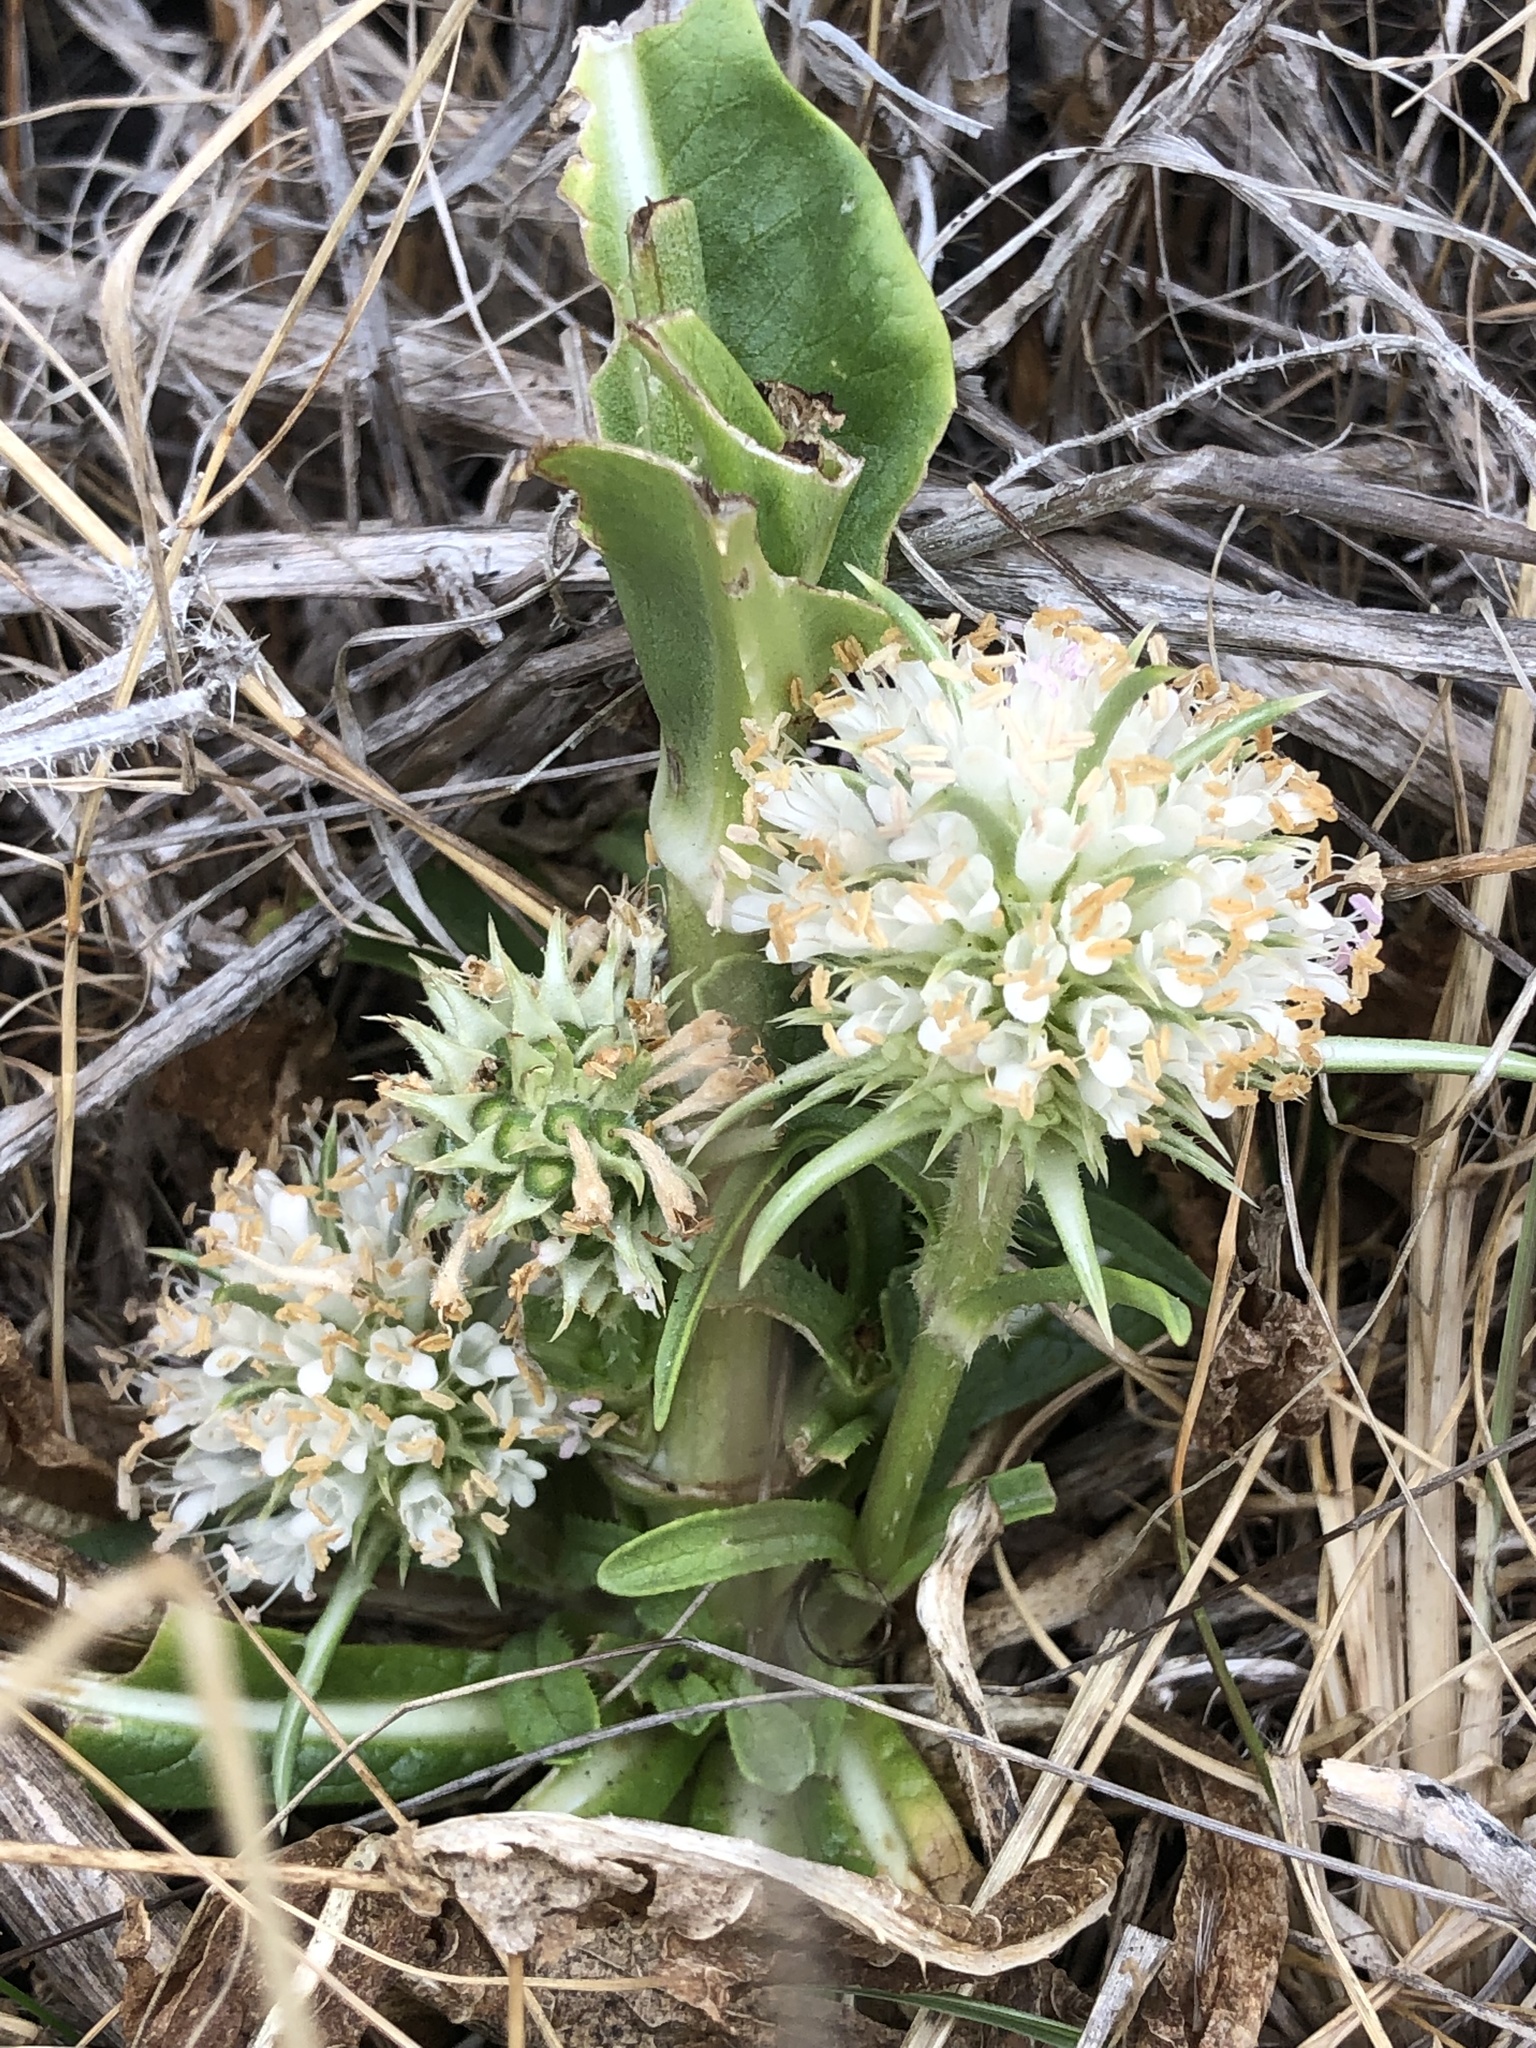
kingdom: Plantae
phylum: Tracheophyta
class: Magnoliopsida
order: Dipsacales
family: Caprifoliaceae
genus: Dipsacus
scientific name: Dipsacus sativus
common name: Fuller's teasel
